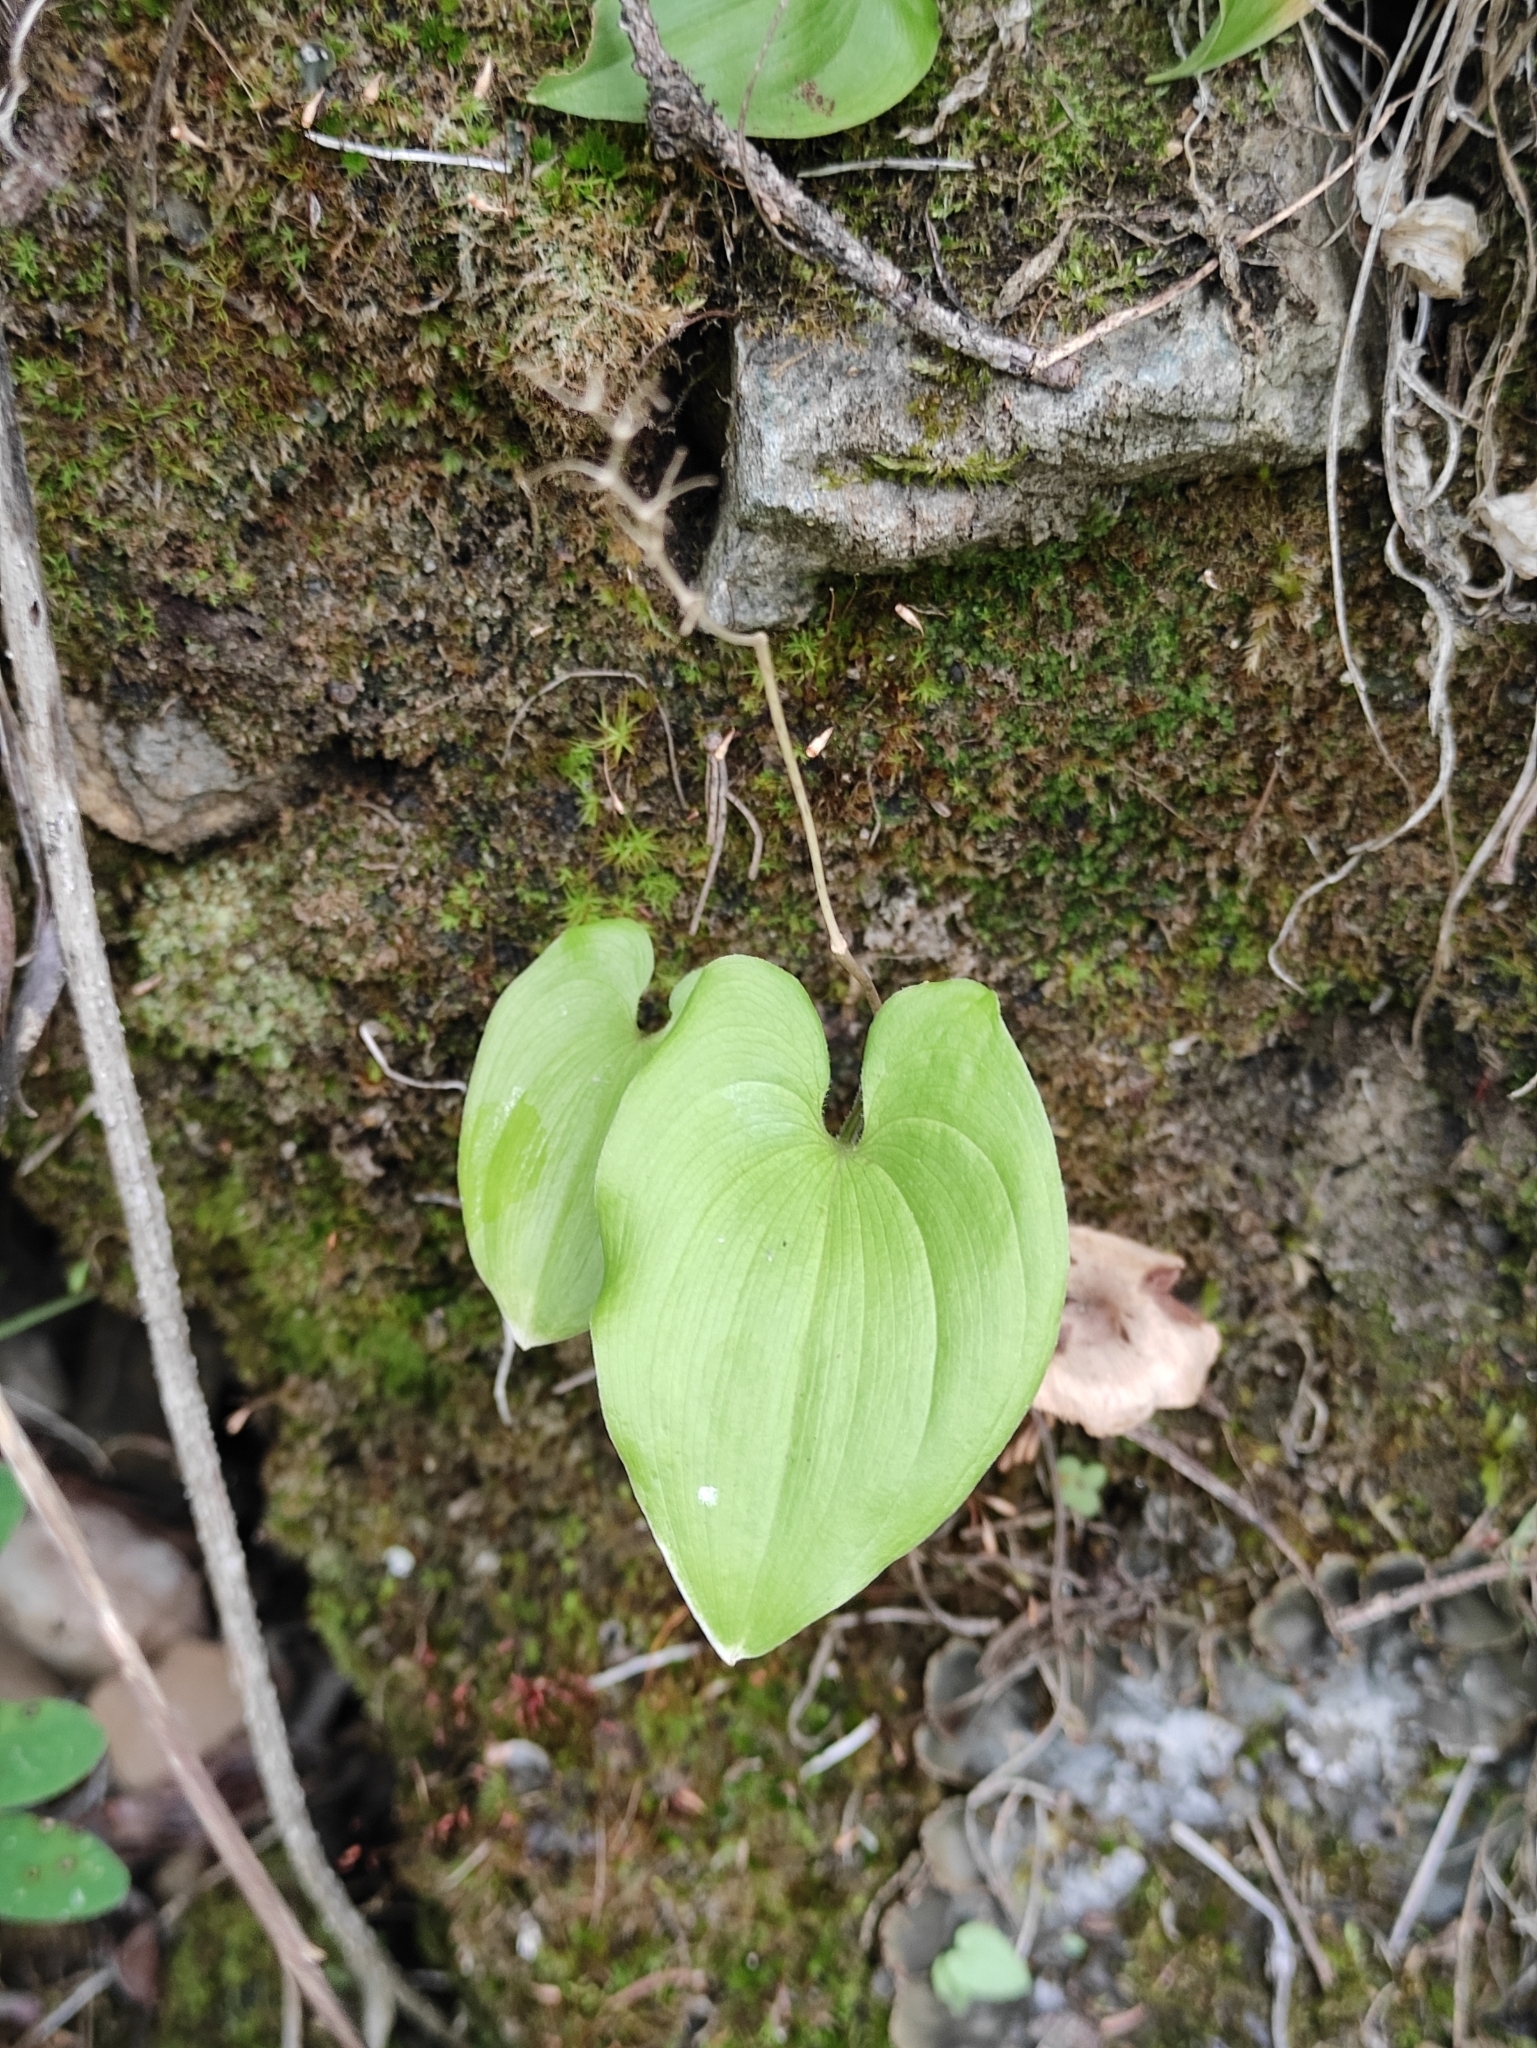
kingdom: Plantae
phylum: Tracheophyta
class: Liliopsida
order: Asparagales
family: Asparagaceae
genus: Maianthemum
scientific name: Maianthemum bifolium
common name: May lily
